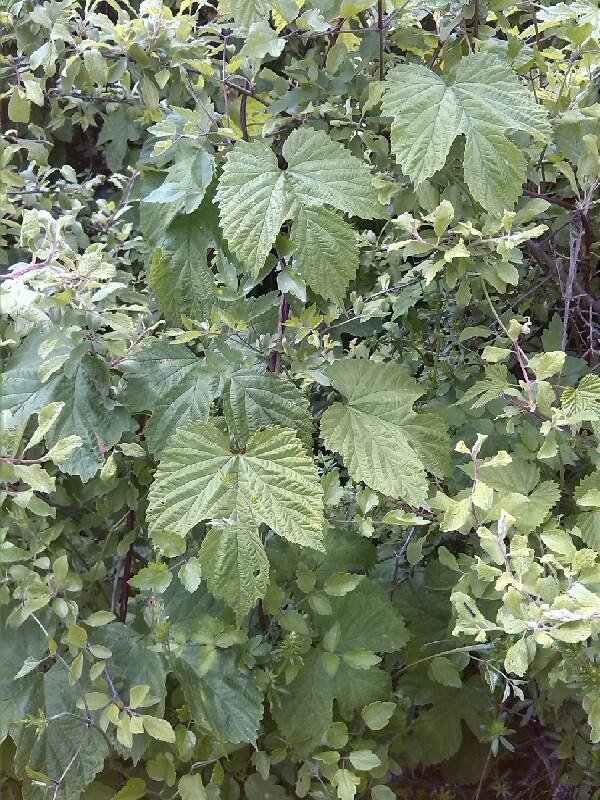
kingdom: Plantae
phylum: Tracheophyta
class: Magnoliopsida
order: Rosales
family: Cannabaceae
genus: Humulus
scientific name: Humulus lupulus
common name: Hop
